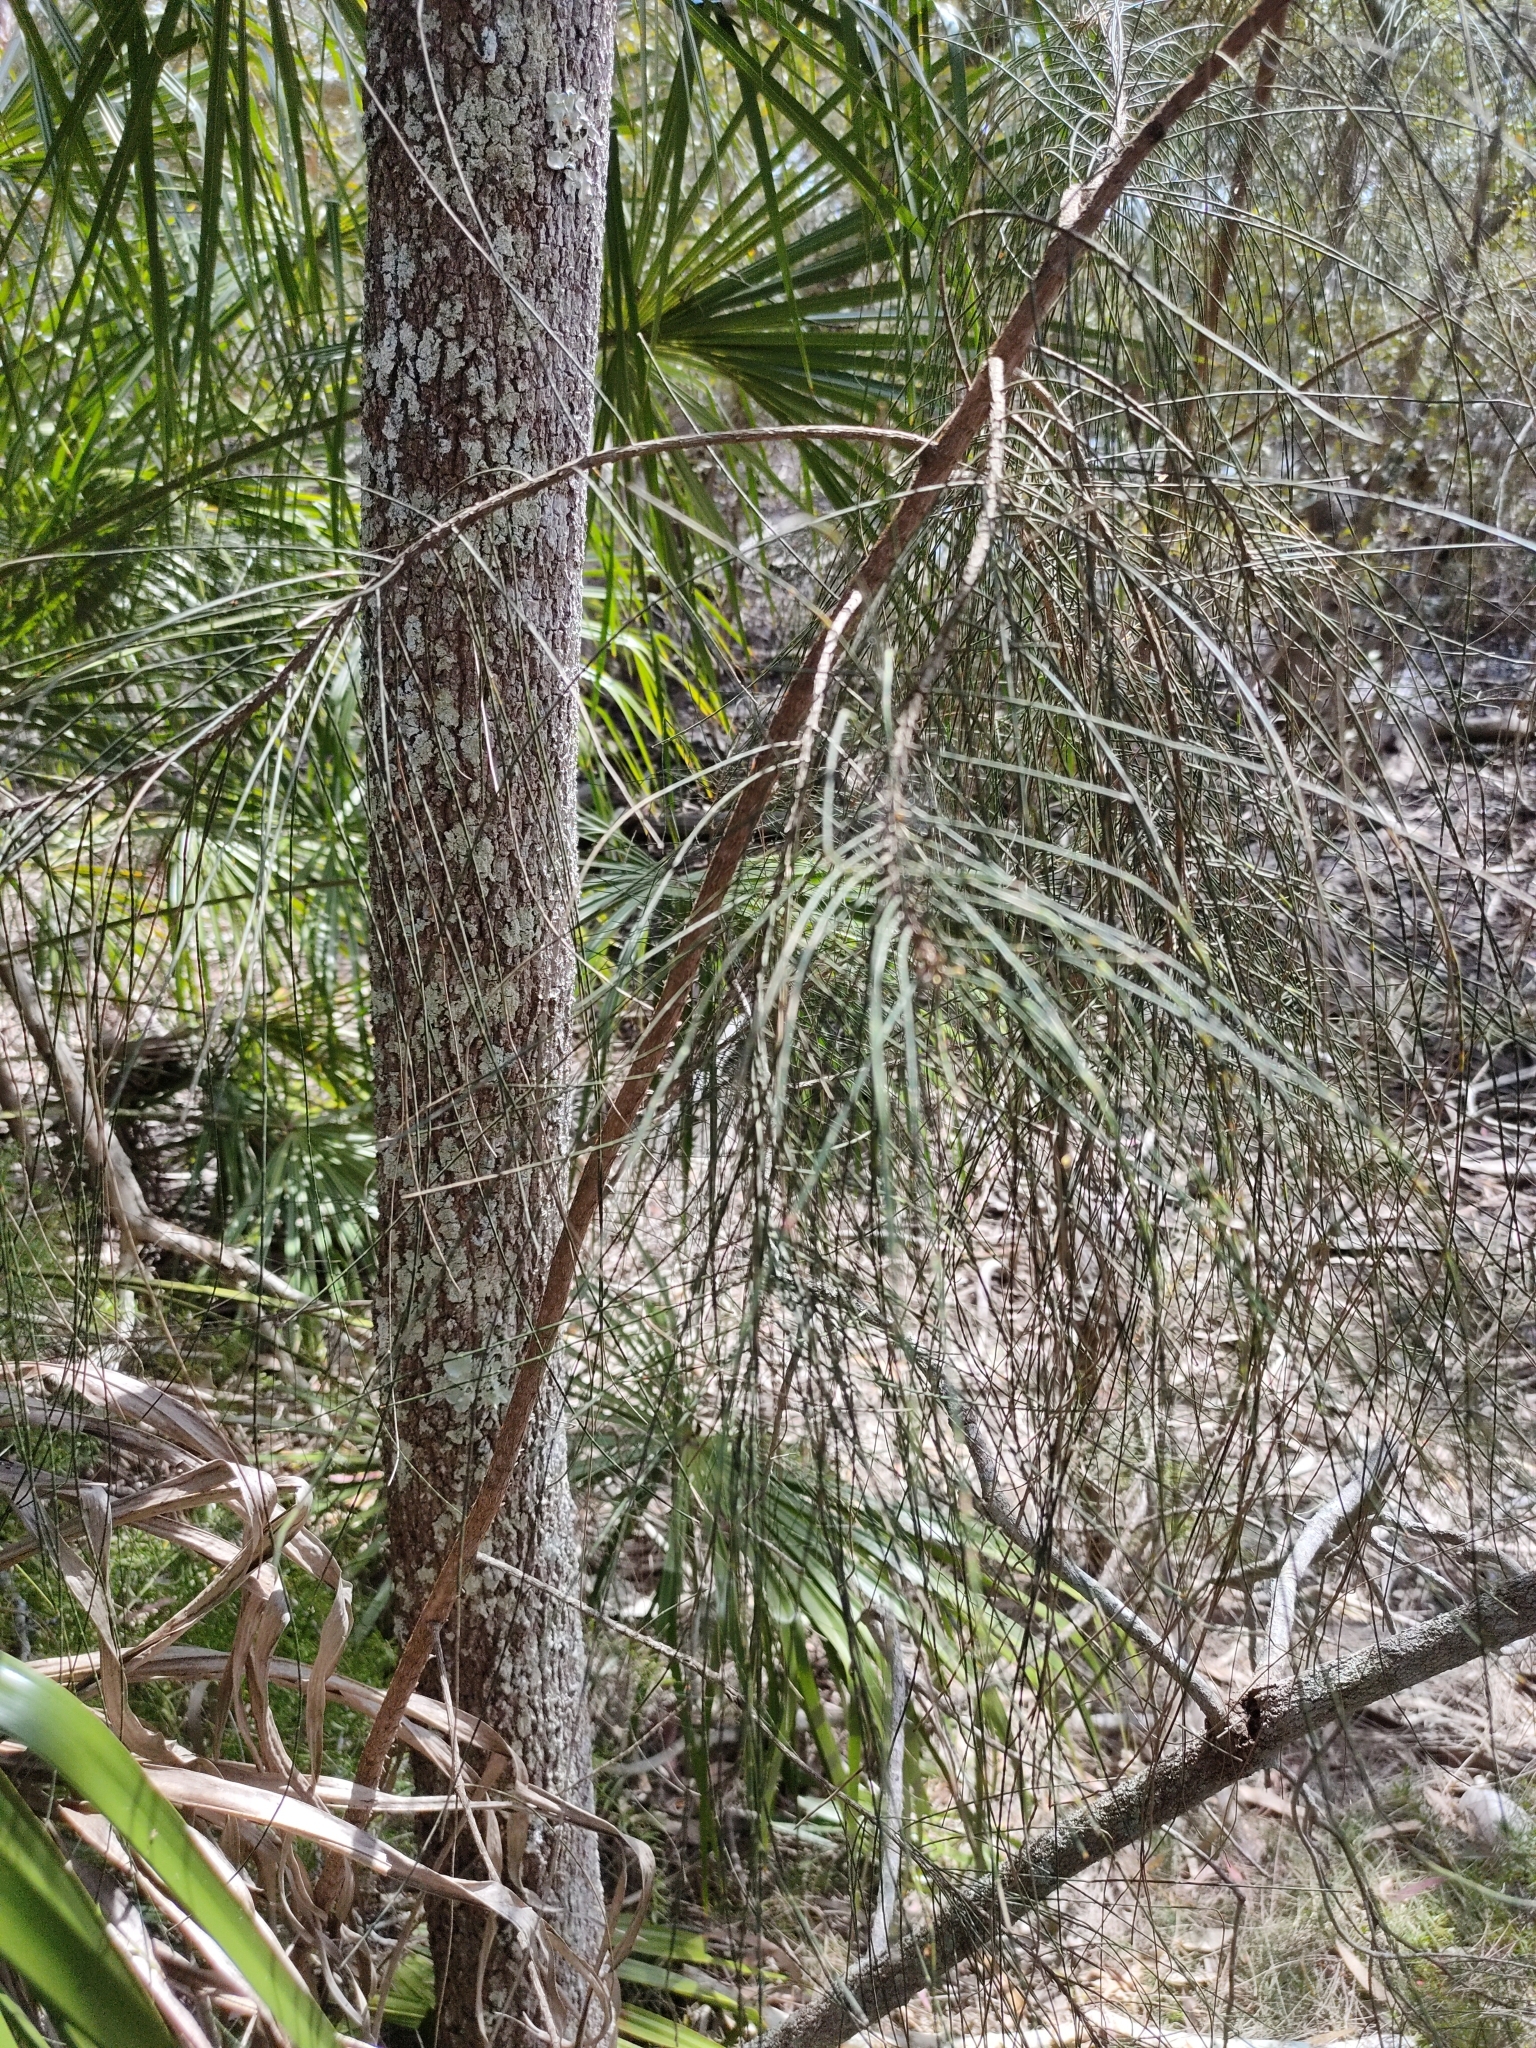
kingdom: Plantae
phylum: Tracheophyta
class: Magnoliopsida
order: Fagales
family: Casuarinaceae
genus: Casuarina
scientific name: Casuarina glauca
